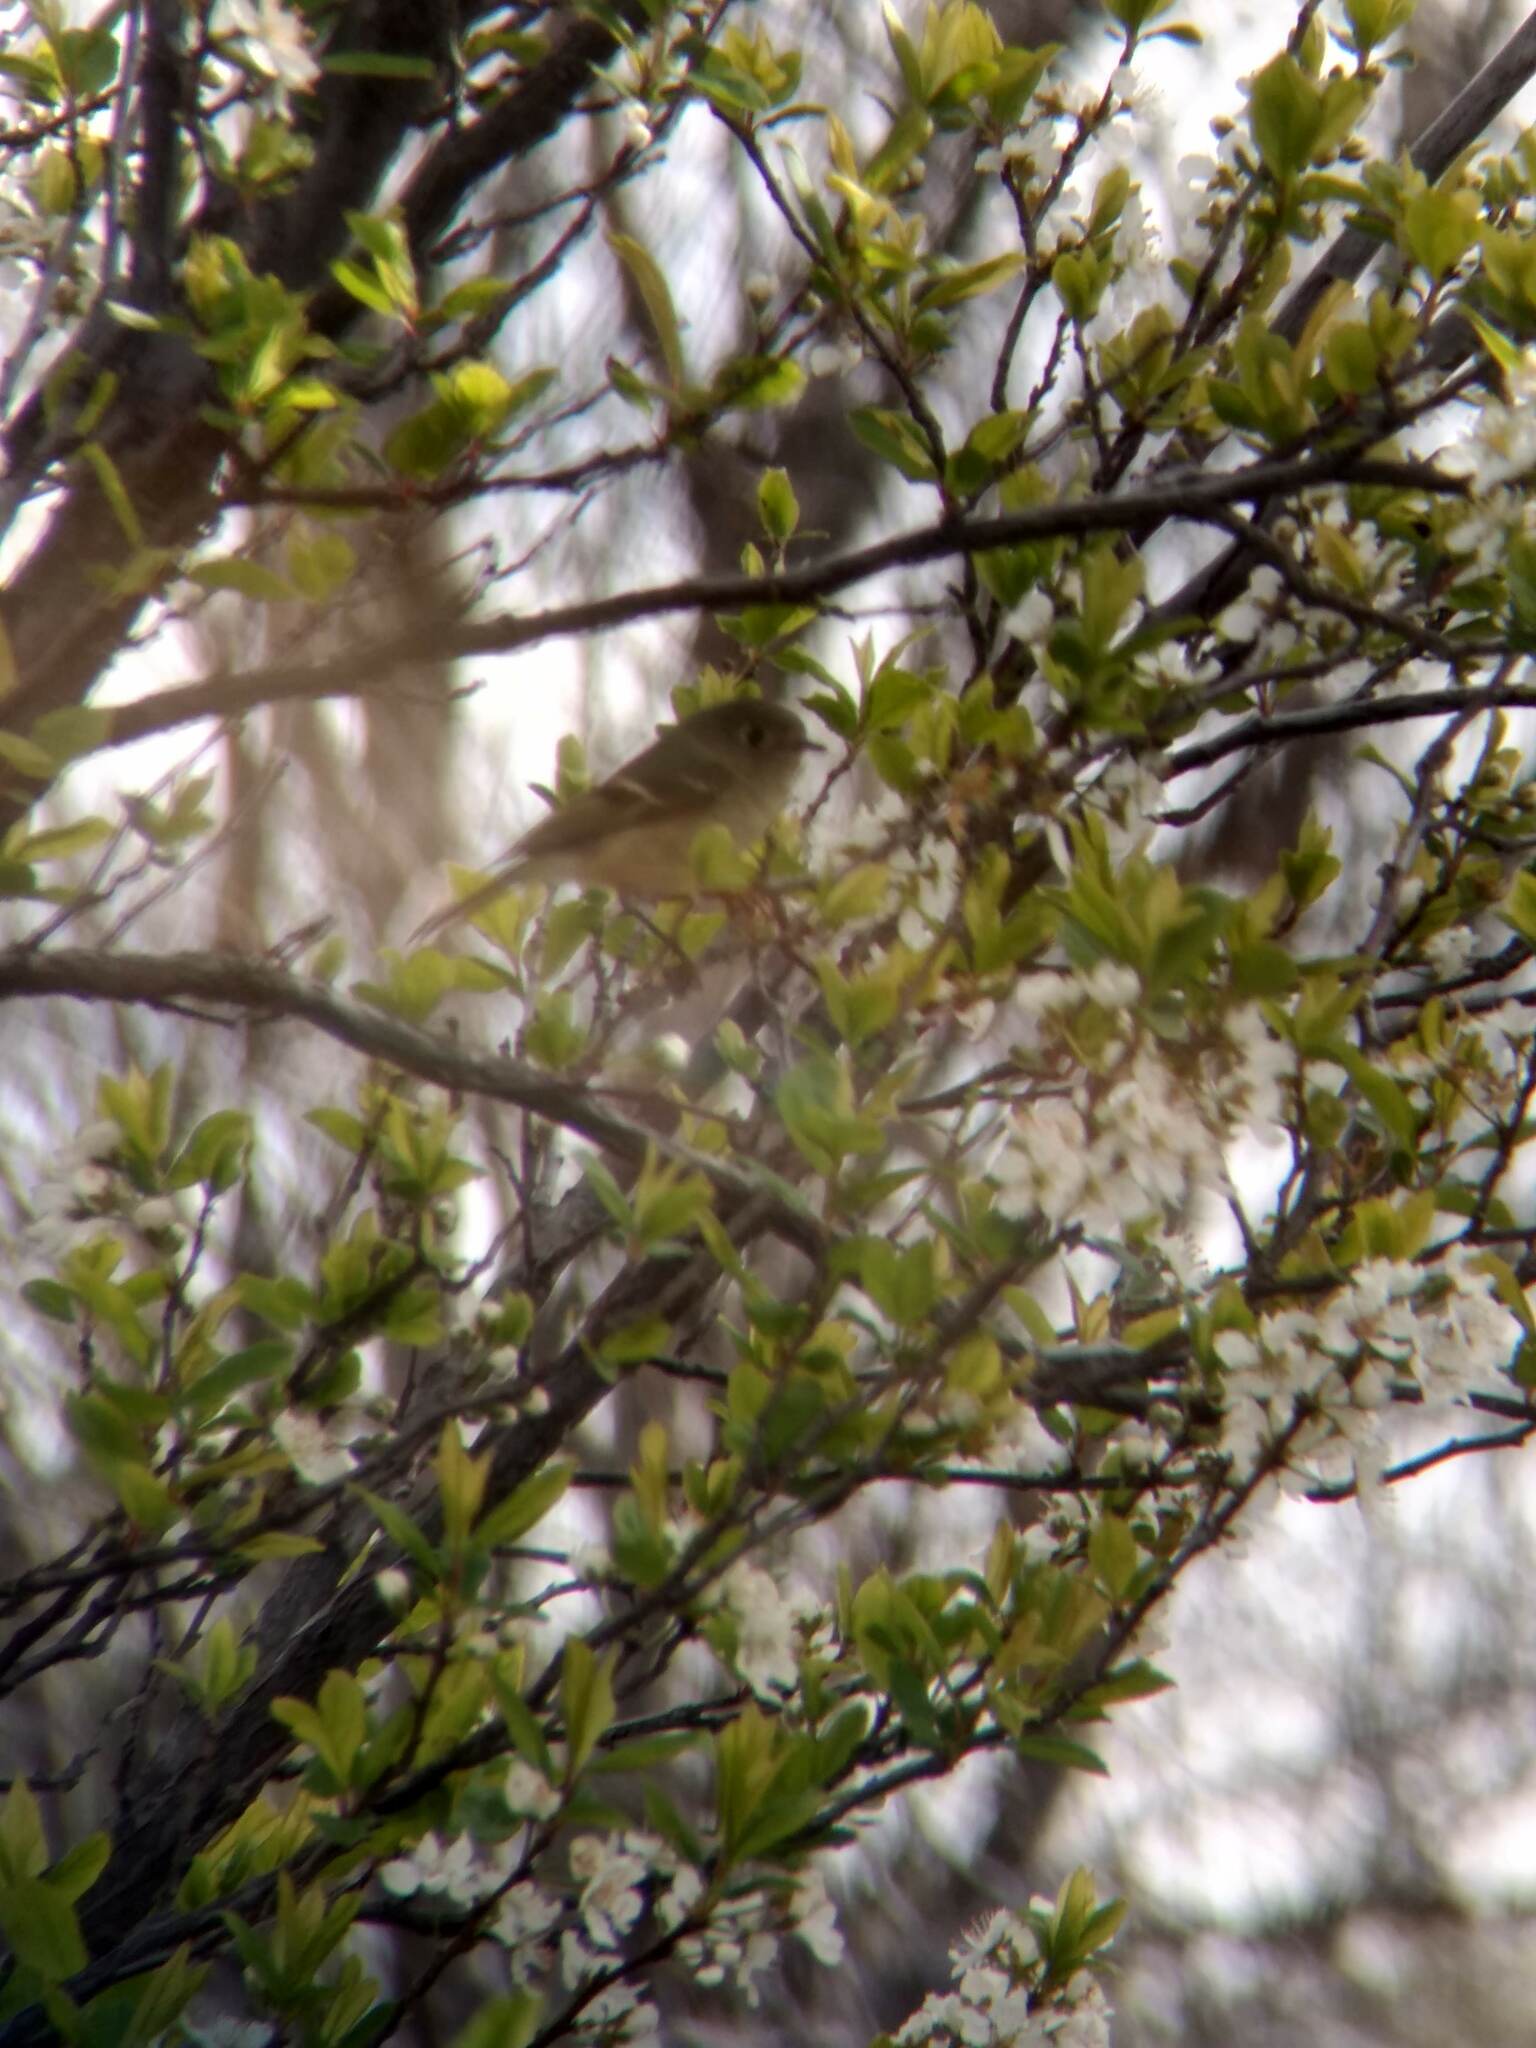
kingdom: Animalia
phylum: Chordata
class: Aves
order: Passeriformes
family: Regulidae
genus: Regulus
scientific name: Regulus calendula
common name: Ruby-crowned kinglet
